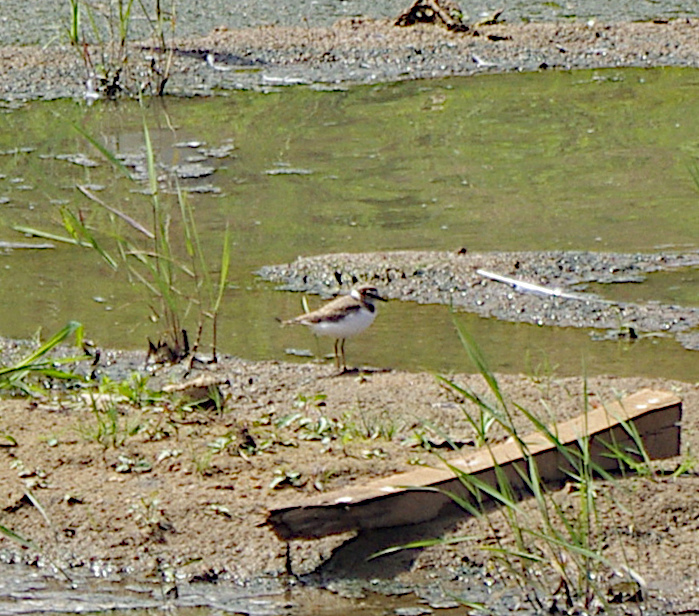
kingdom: Animalia
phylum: Chordata
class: Aves
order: Charadriiformes
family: Charadriidae
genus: Charadrius
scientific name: Charadrius dubius
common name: Little ringed plover
